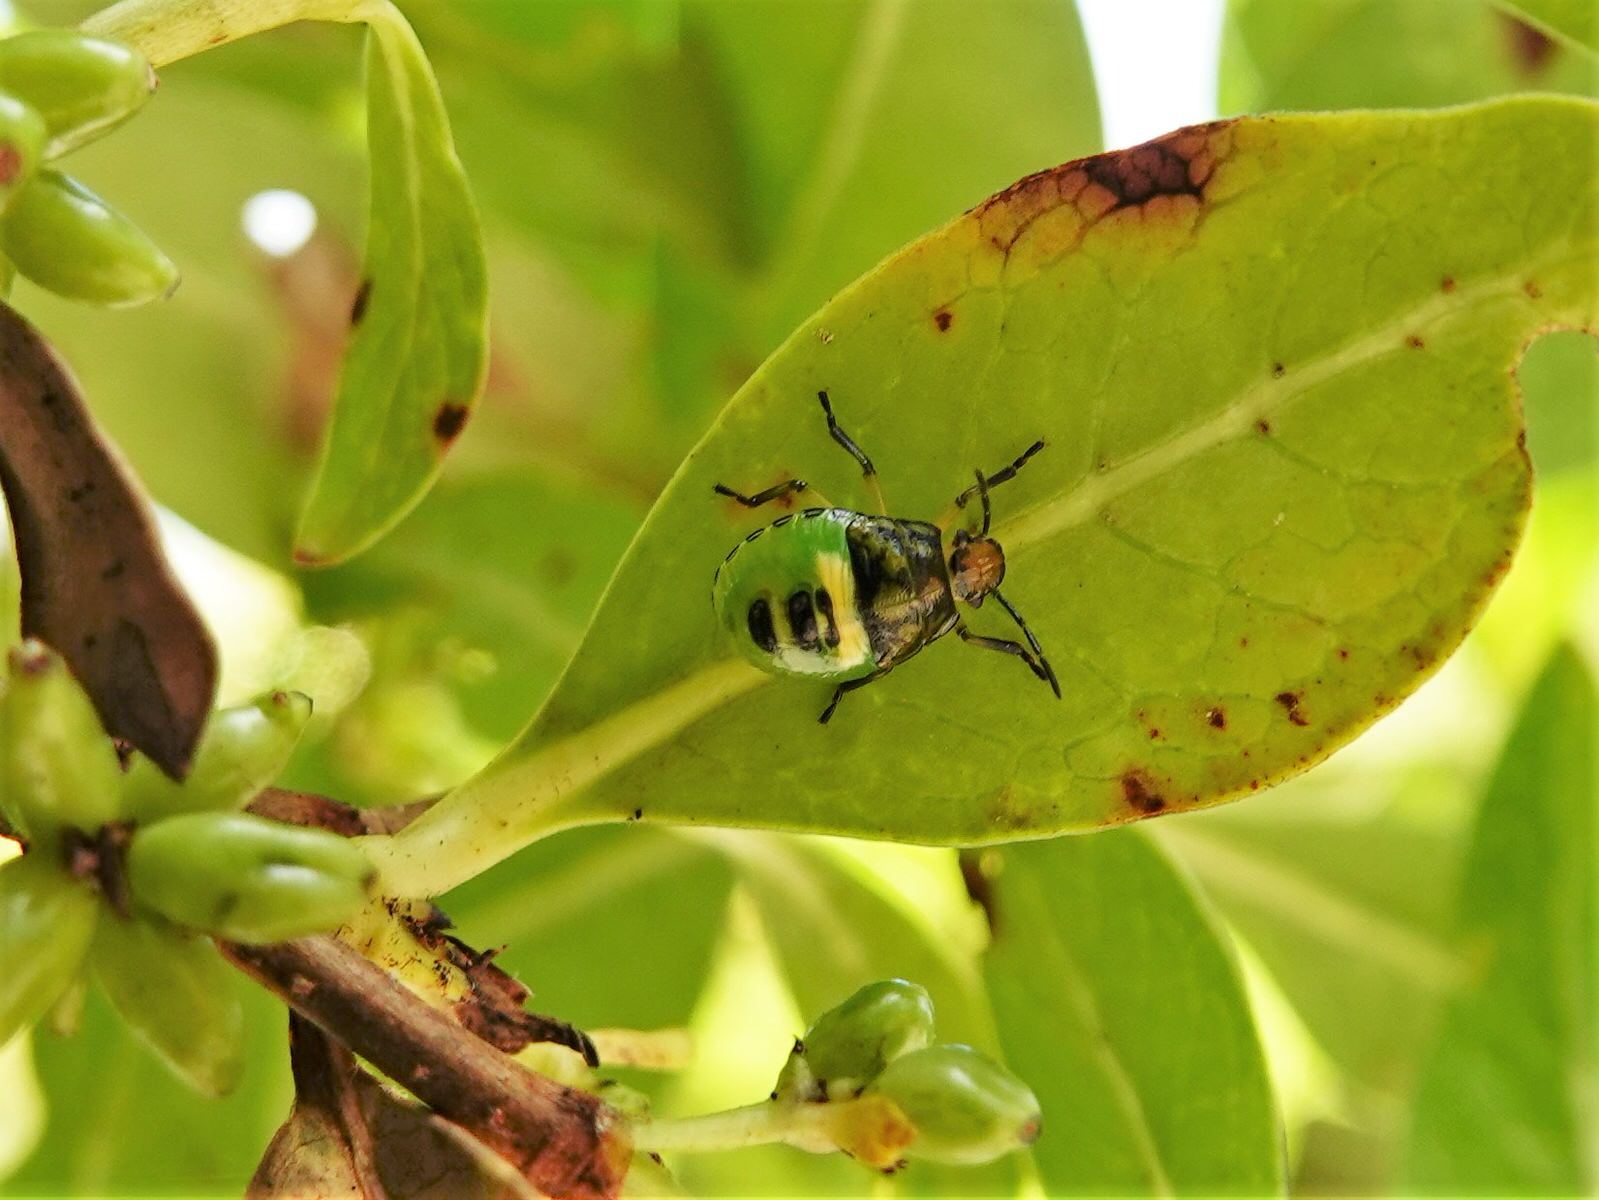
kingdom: Animalia
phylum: Arthropoda
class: Insecta
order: Hemiptera
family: Pentatomidae
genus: Glaucias
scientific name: Glaucias amyota
